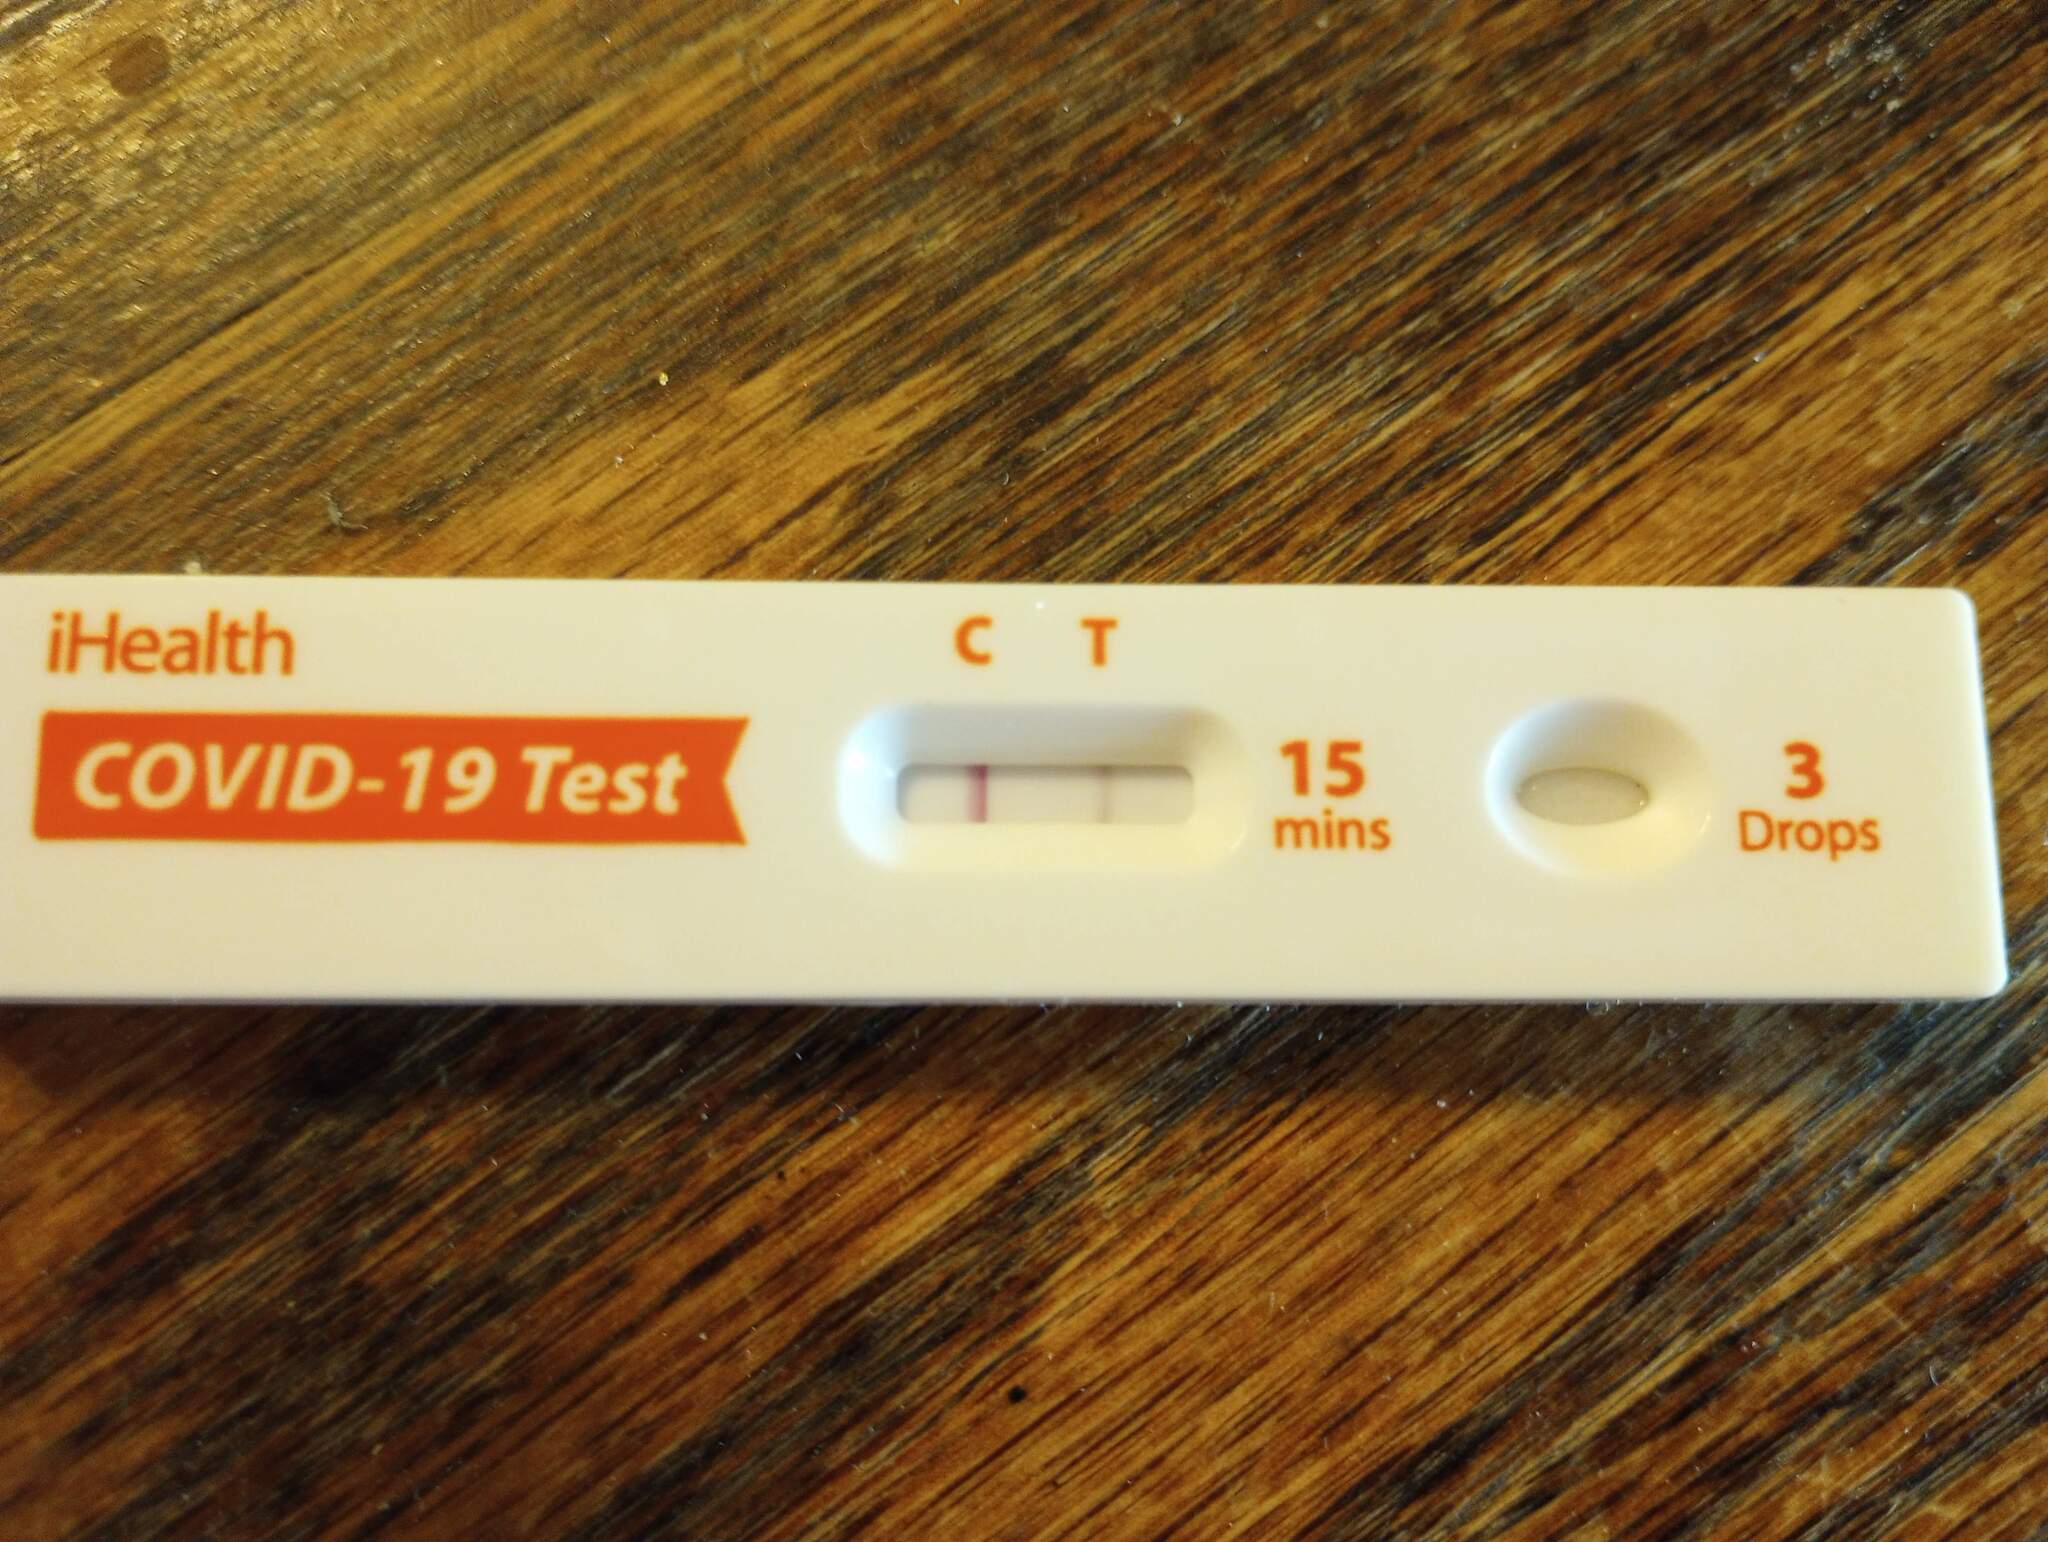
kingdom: Viruses
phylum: Pisuviricota
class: Pisoniviricetes
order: Nidovirales
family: Coronaviridae
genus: Betacoronavirus
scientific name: Betacoronavirus
